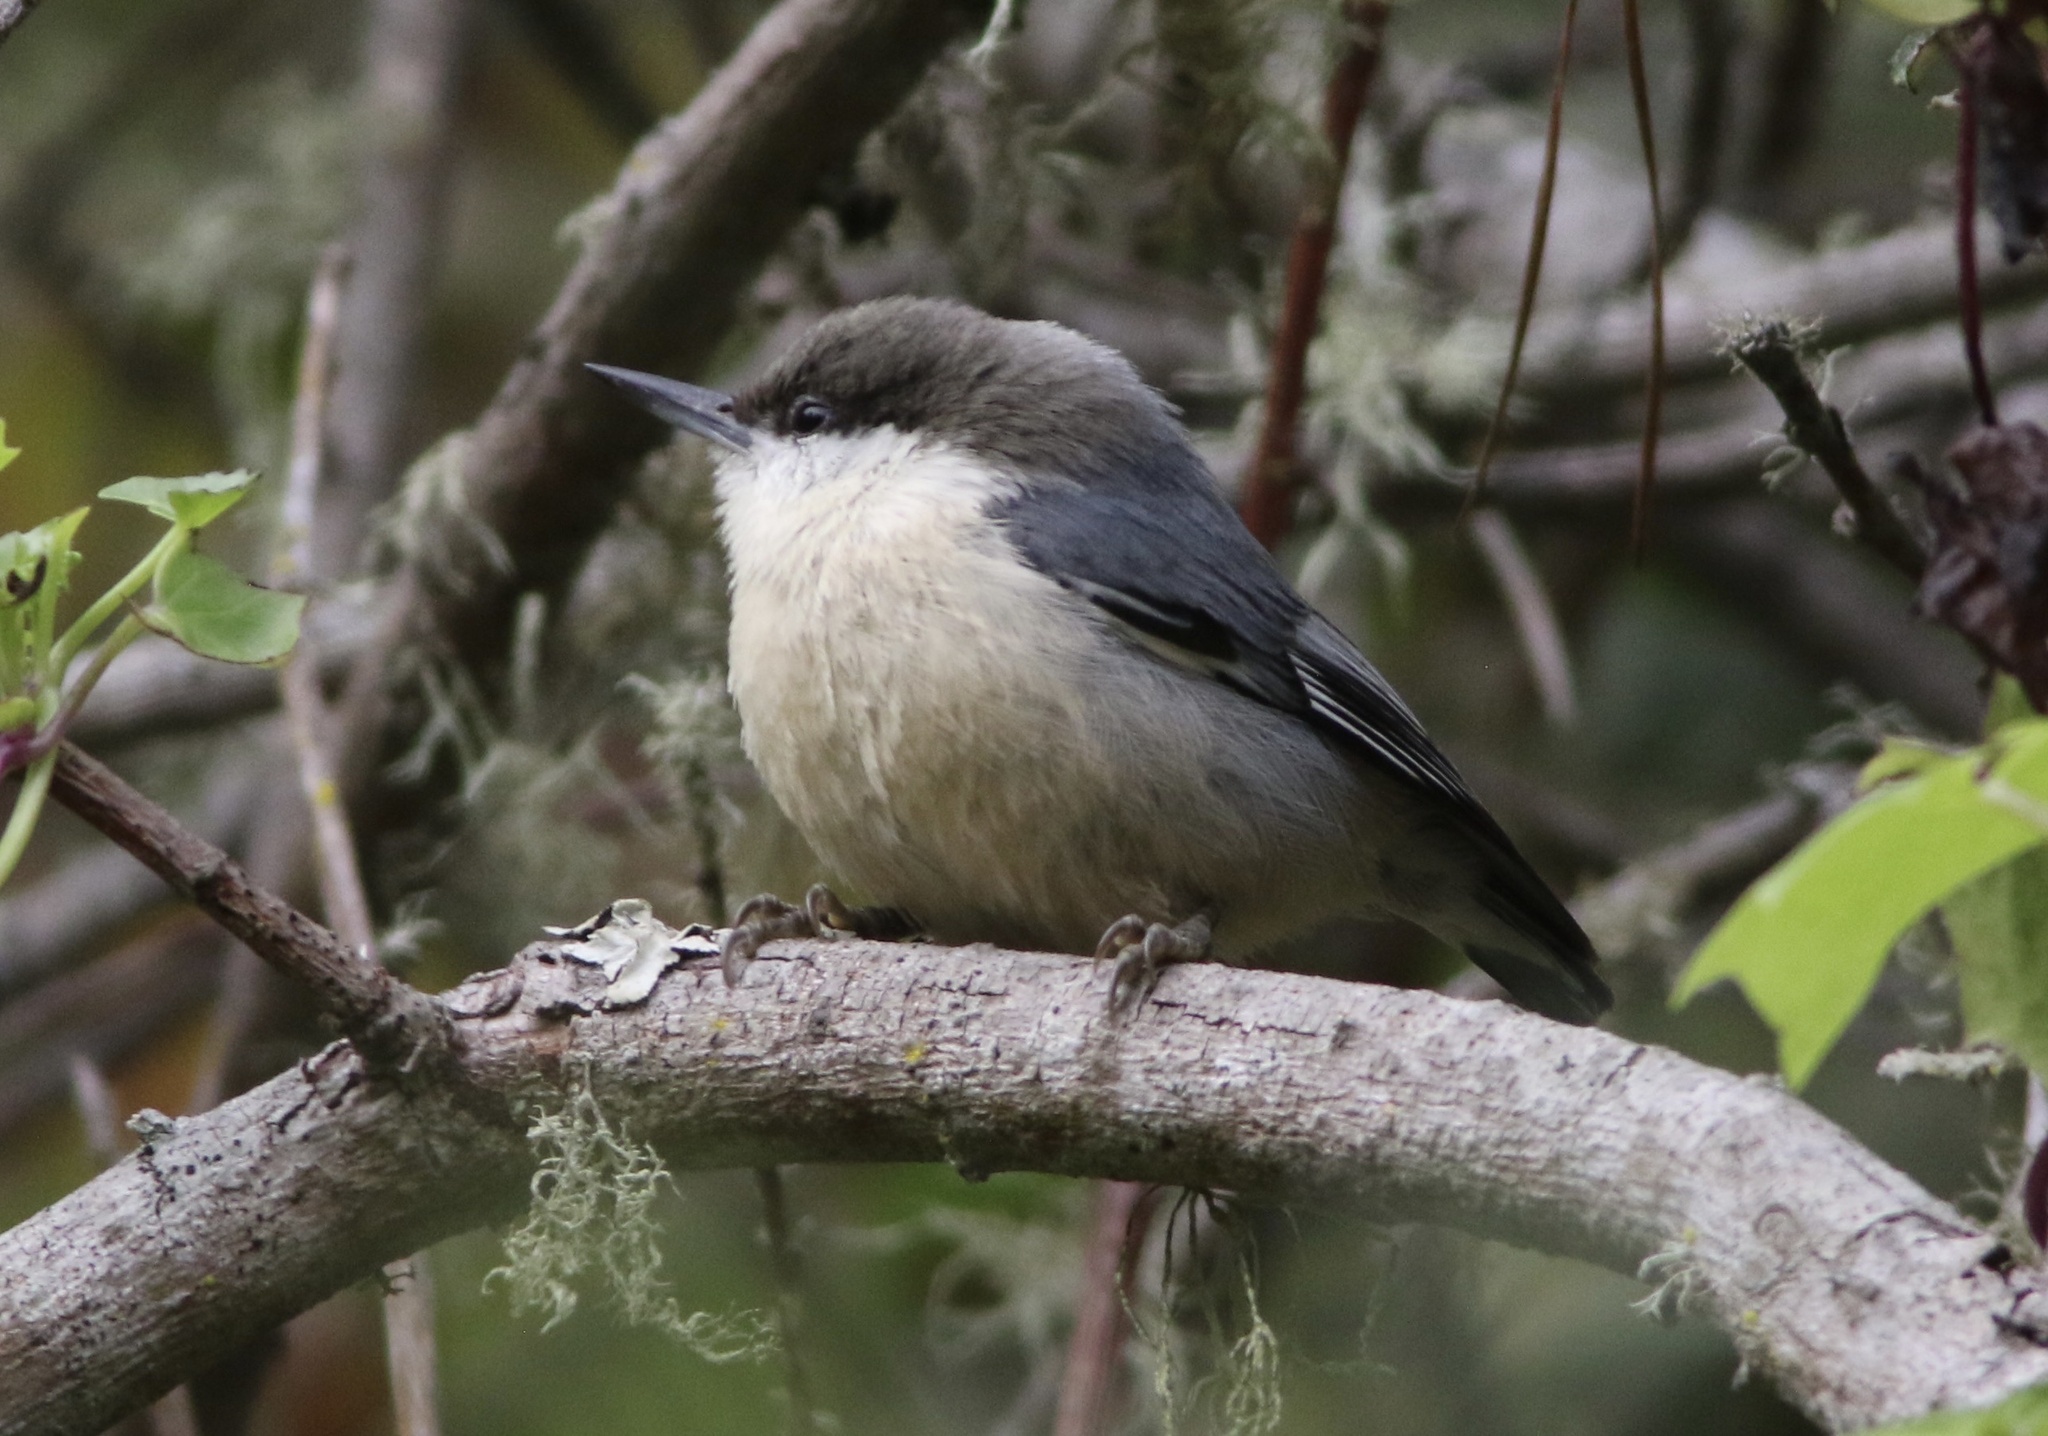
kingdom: Animalia
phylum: Chordata
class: Aves
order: Passeriformes
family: Sittidae
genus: Sitta
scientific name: Sitta pygmaea
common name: Pygmy nuthatch
